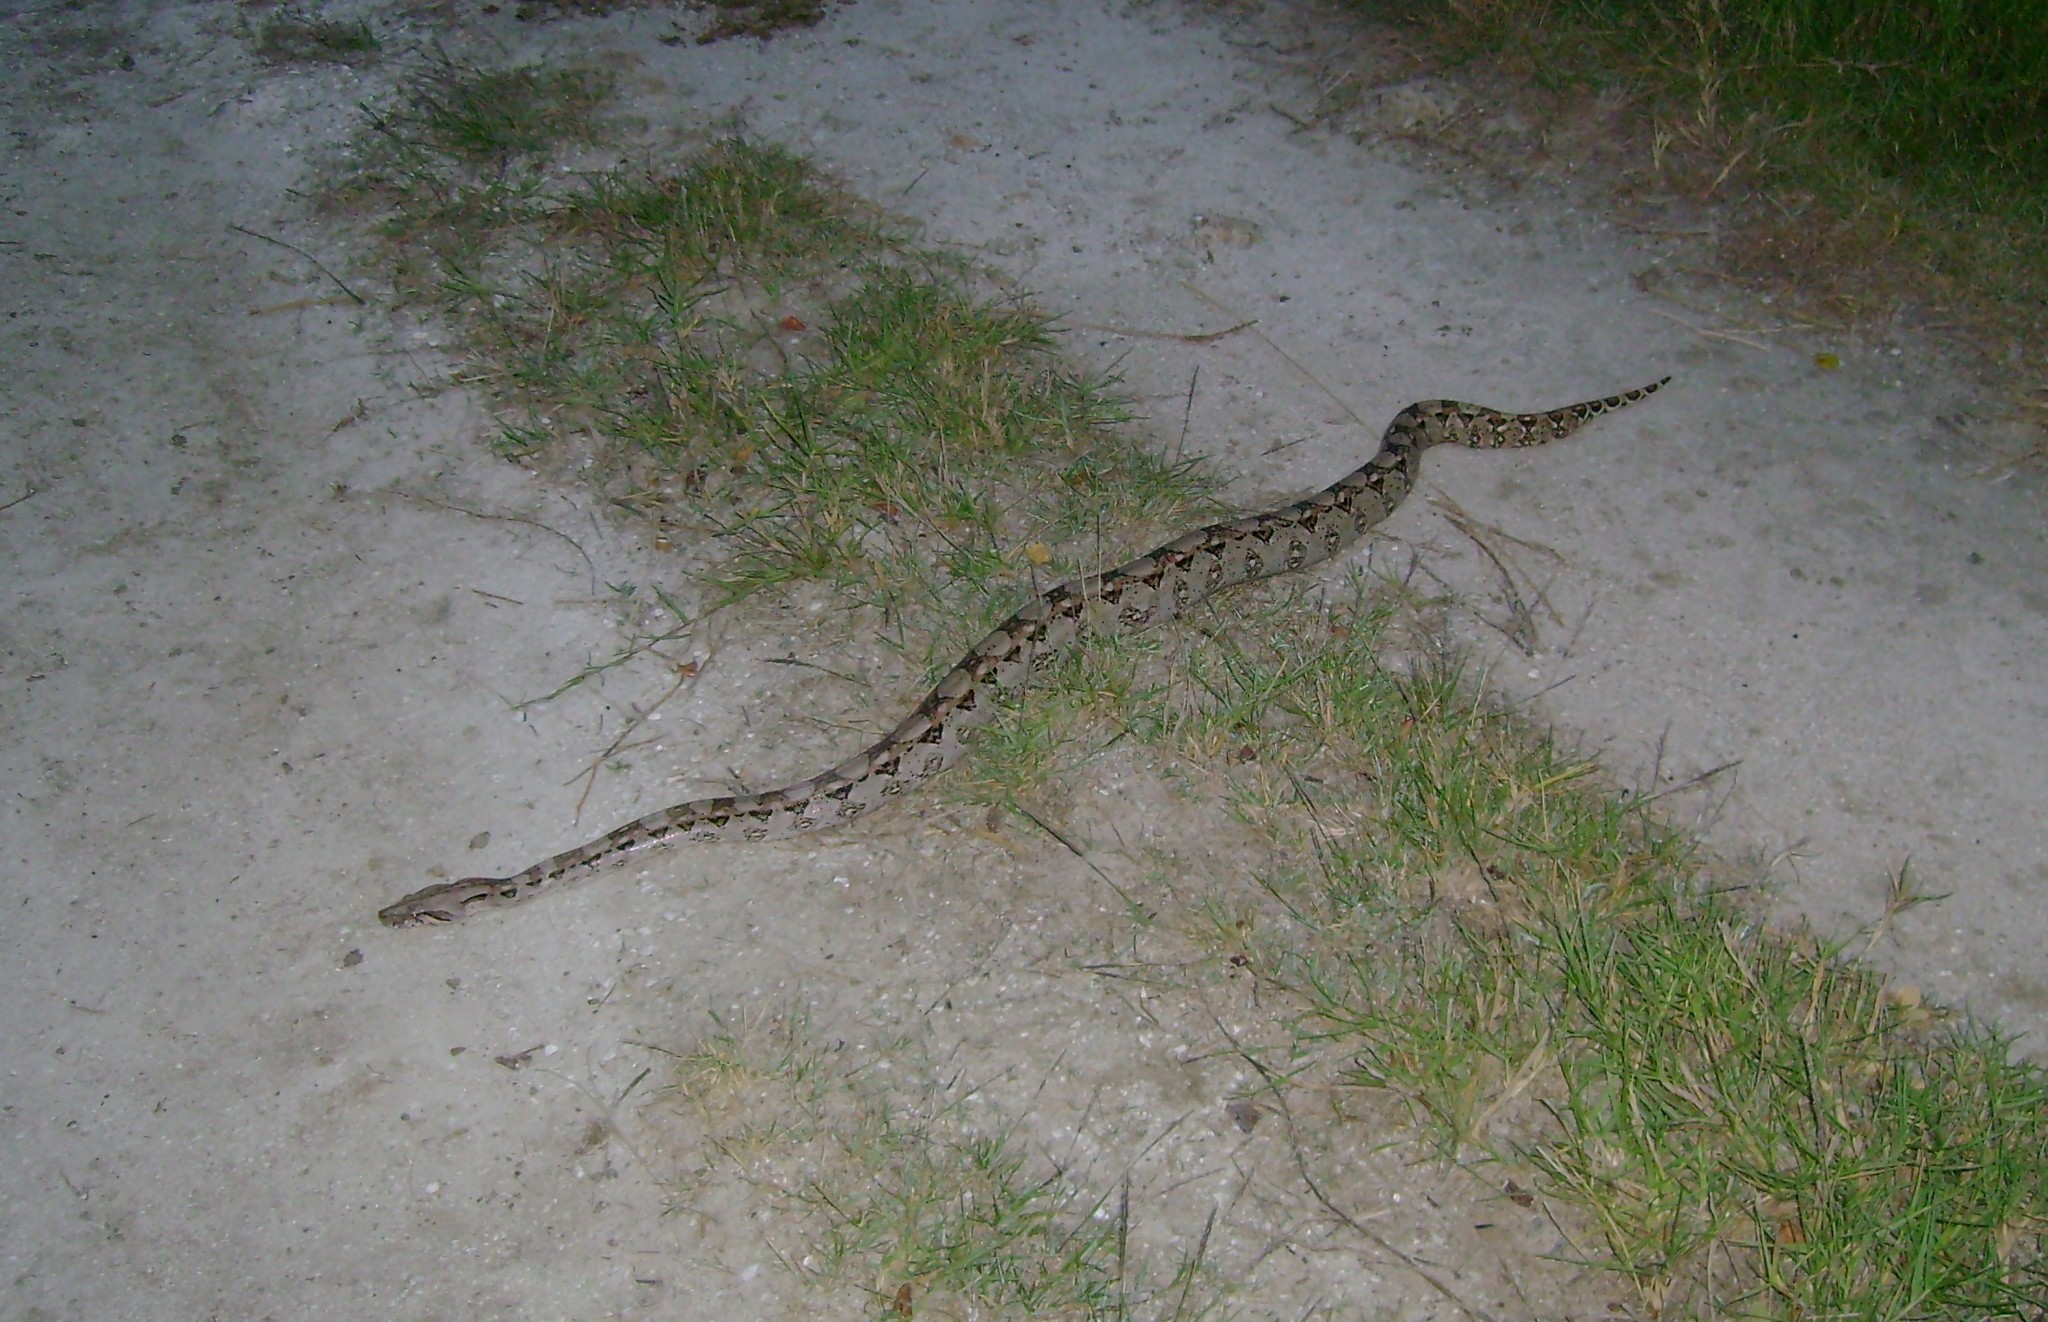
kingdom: Animalia
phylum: Chordata
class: Squamata
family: Boidae
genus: Boa
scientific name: Boa imperator
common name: Central american boa
